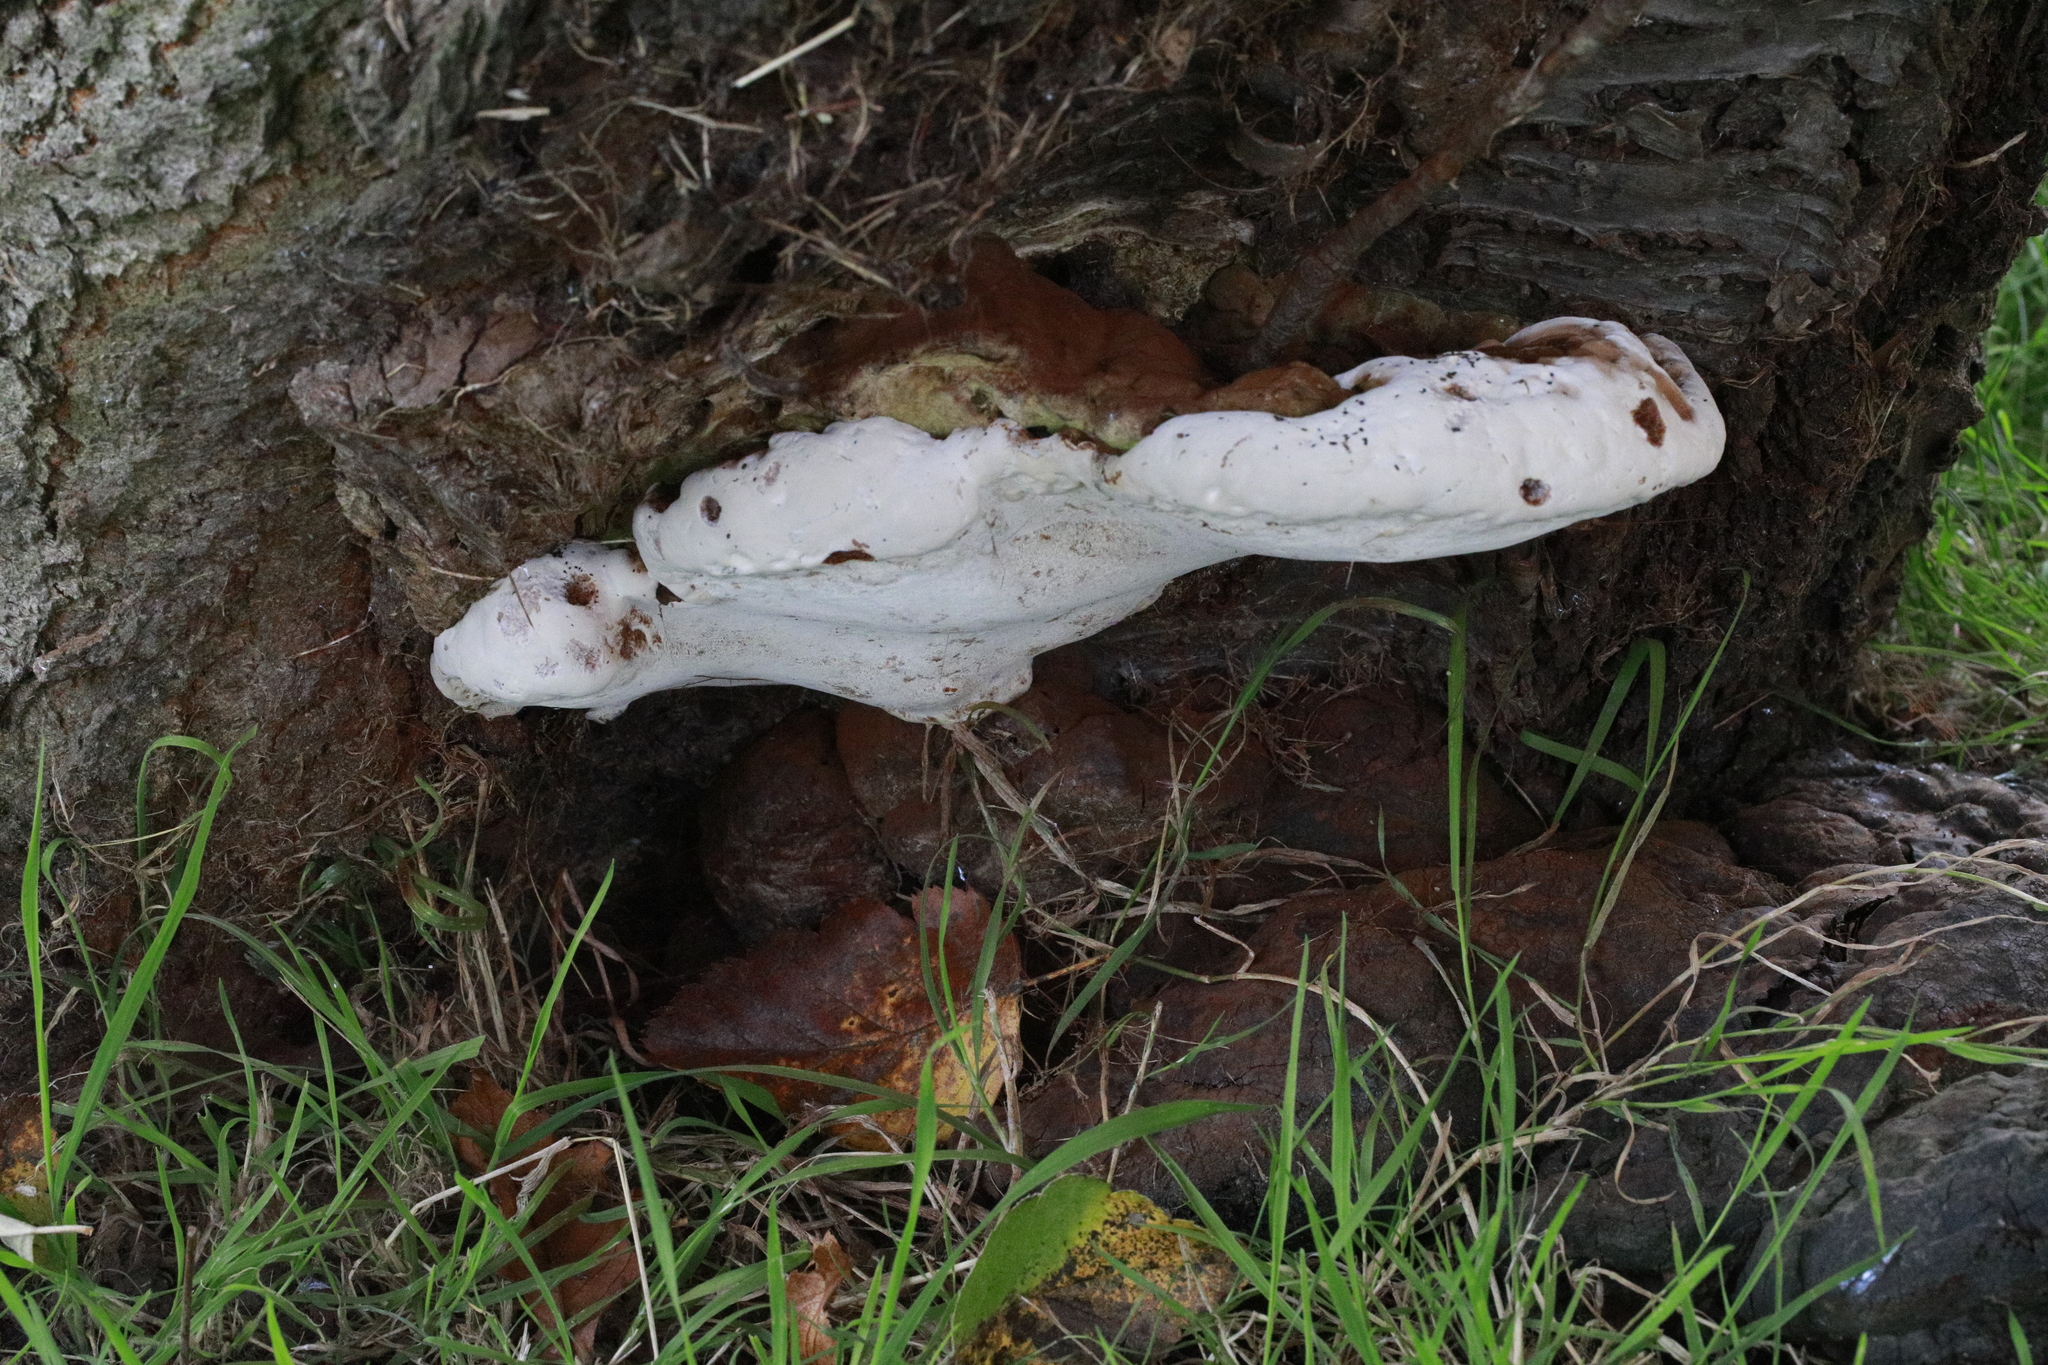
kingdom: Fungi
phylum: Basidiomycota
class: Agaricomycetes
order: Polyporales
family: Polyporaceae
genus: Ganoderma
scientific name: Ganoderma applanatum
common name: Artist's bracket
